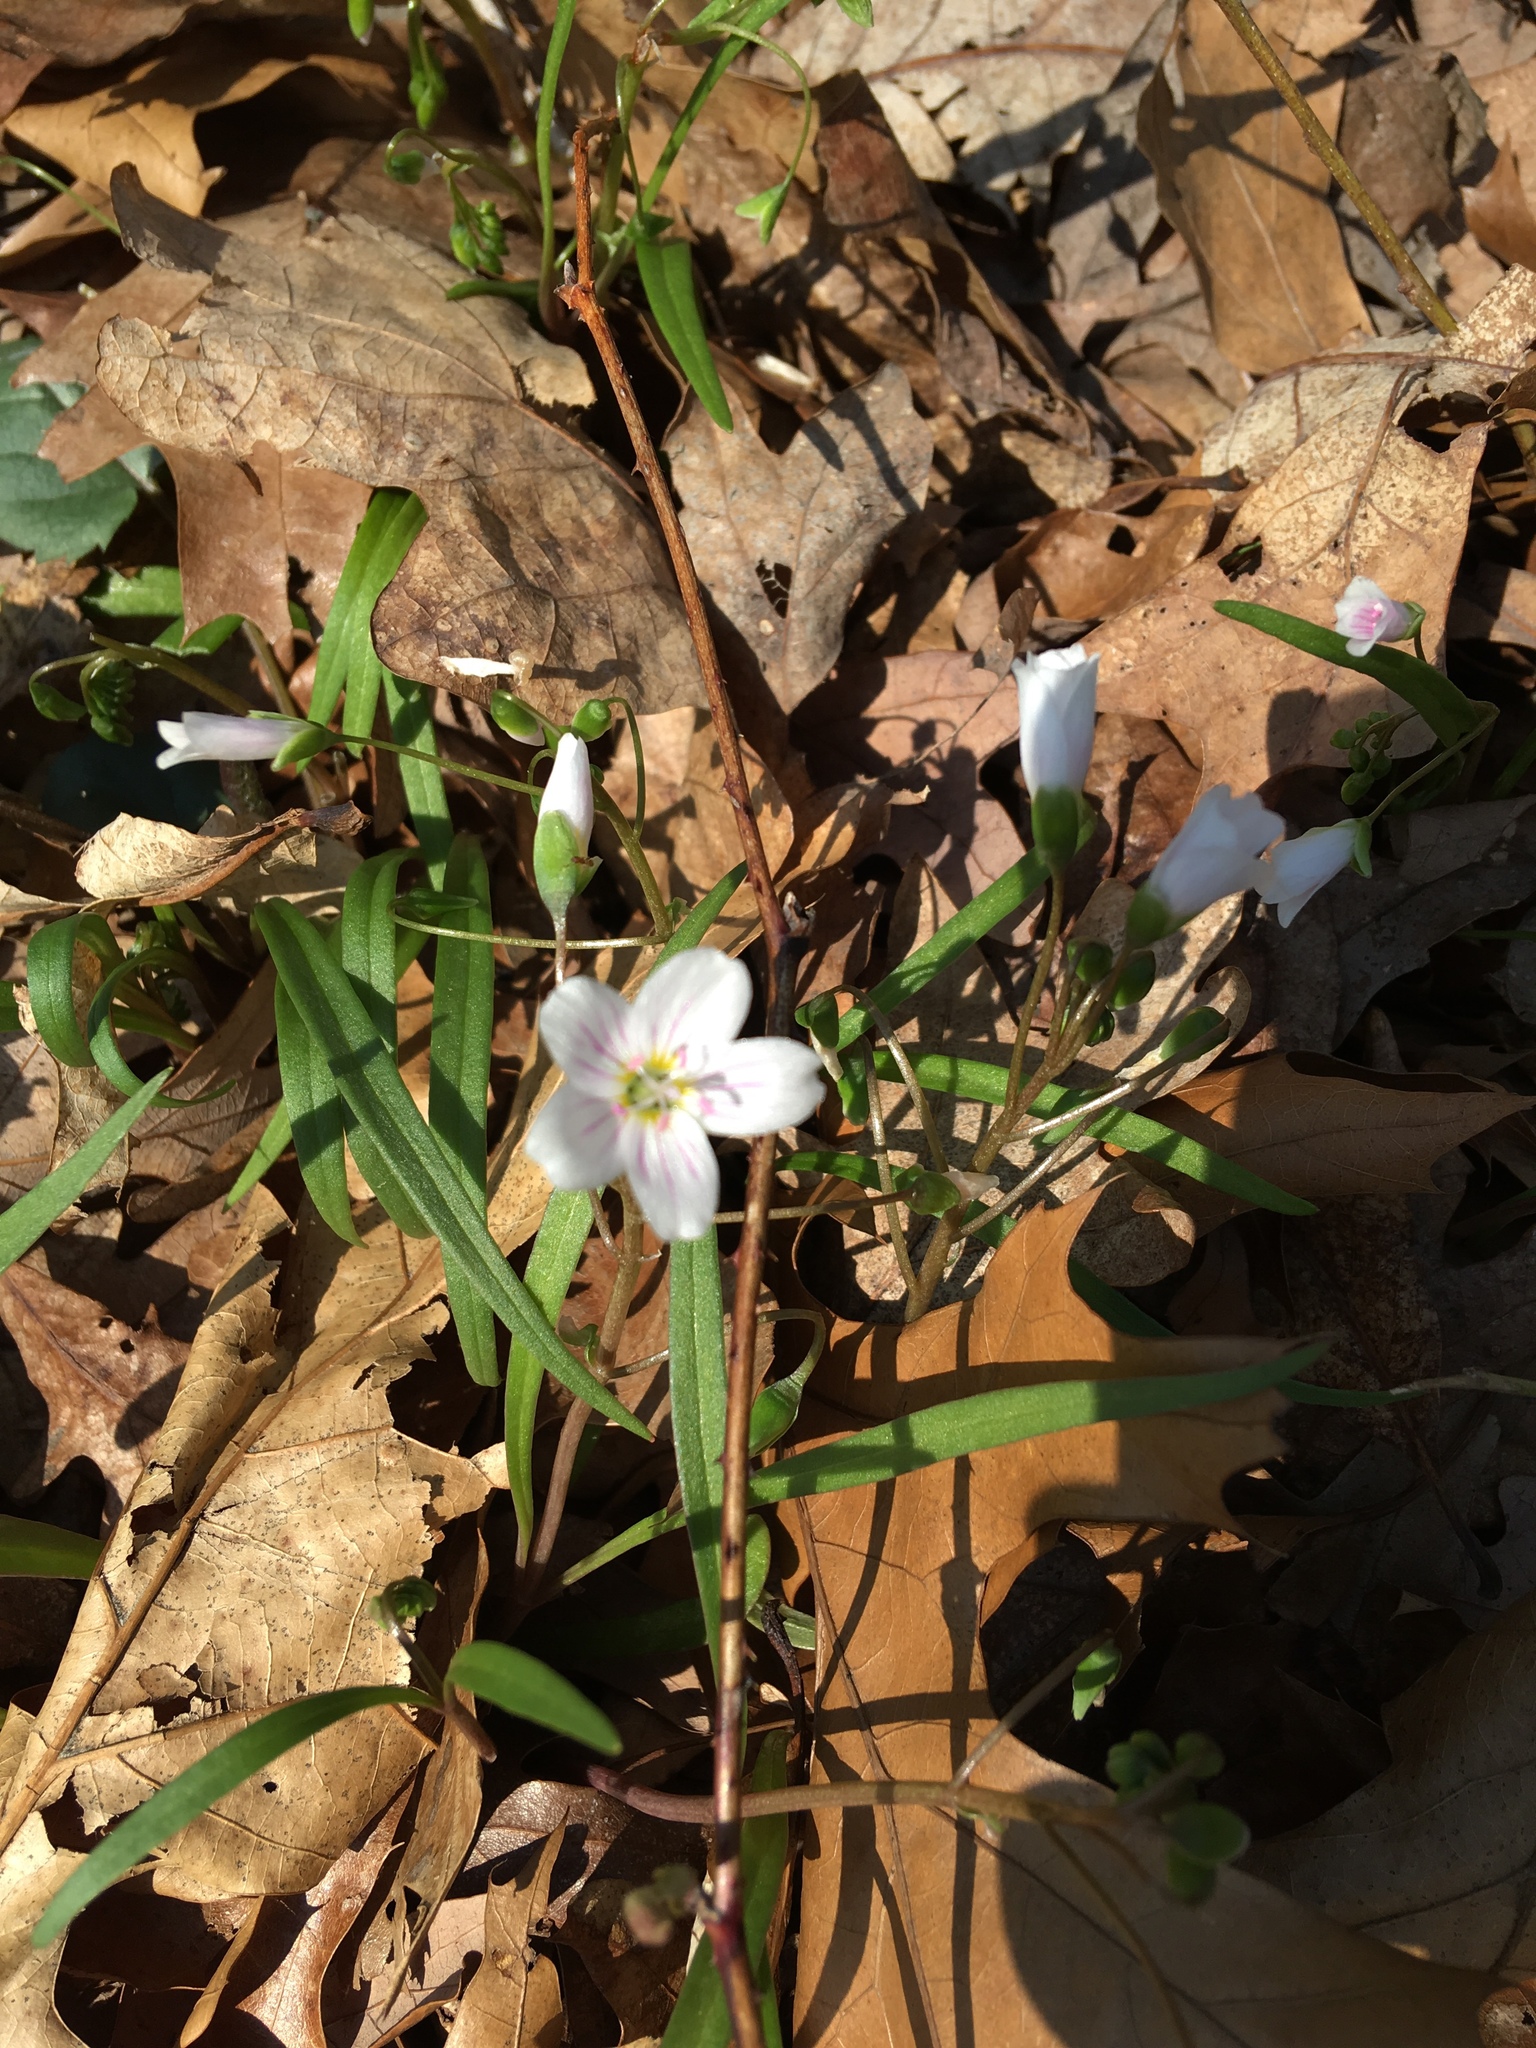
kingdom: Plantae
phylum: Tracheophyta
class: Magnoliopsida
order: Caryophyllales
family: Montiaceae
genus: Claytonia
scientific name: Claytonia virginica
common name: Virginia springbeauty
